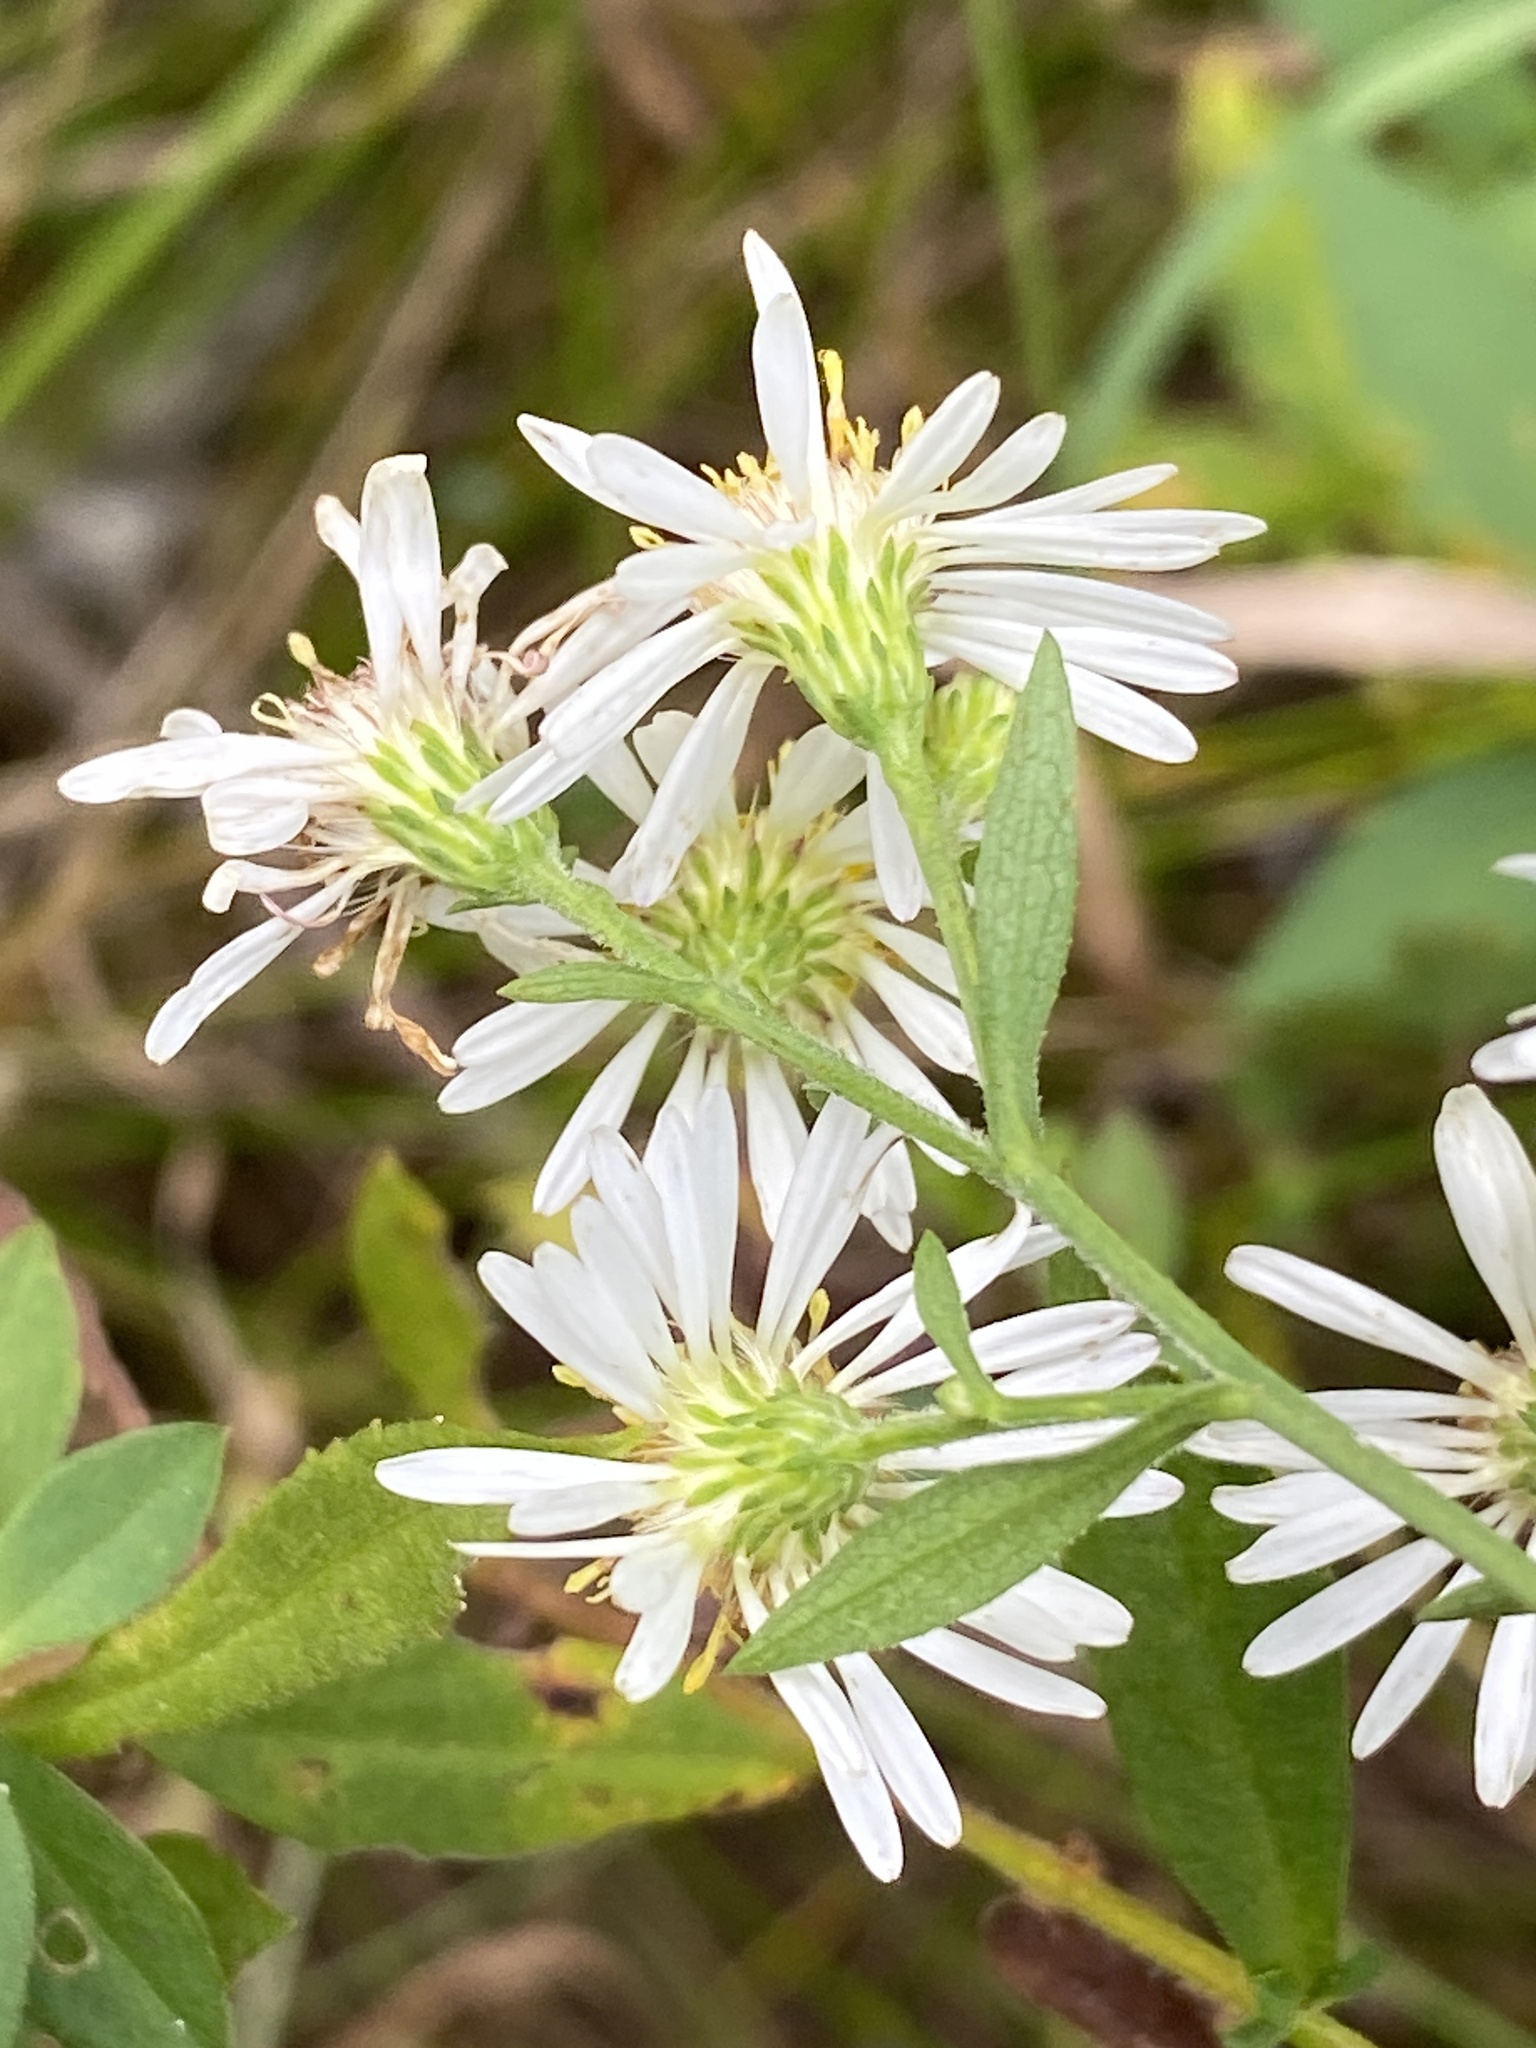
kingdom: Plantae
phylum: Tracheophyta
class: Magnoliopsida
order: Asterales
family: Asteraceae
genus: Symphyotrichum
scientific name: Symphyotrichum lanceolatum
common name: Panicled aster
